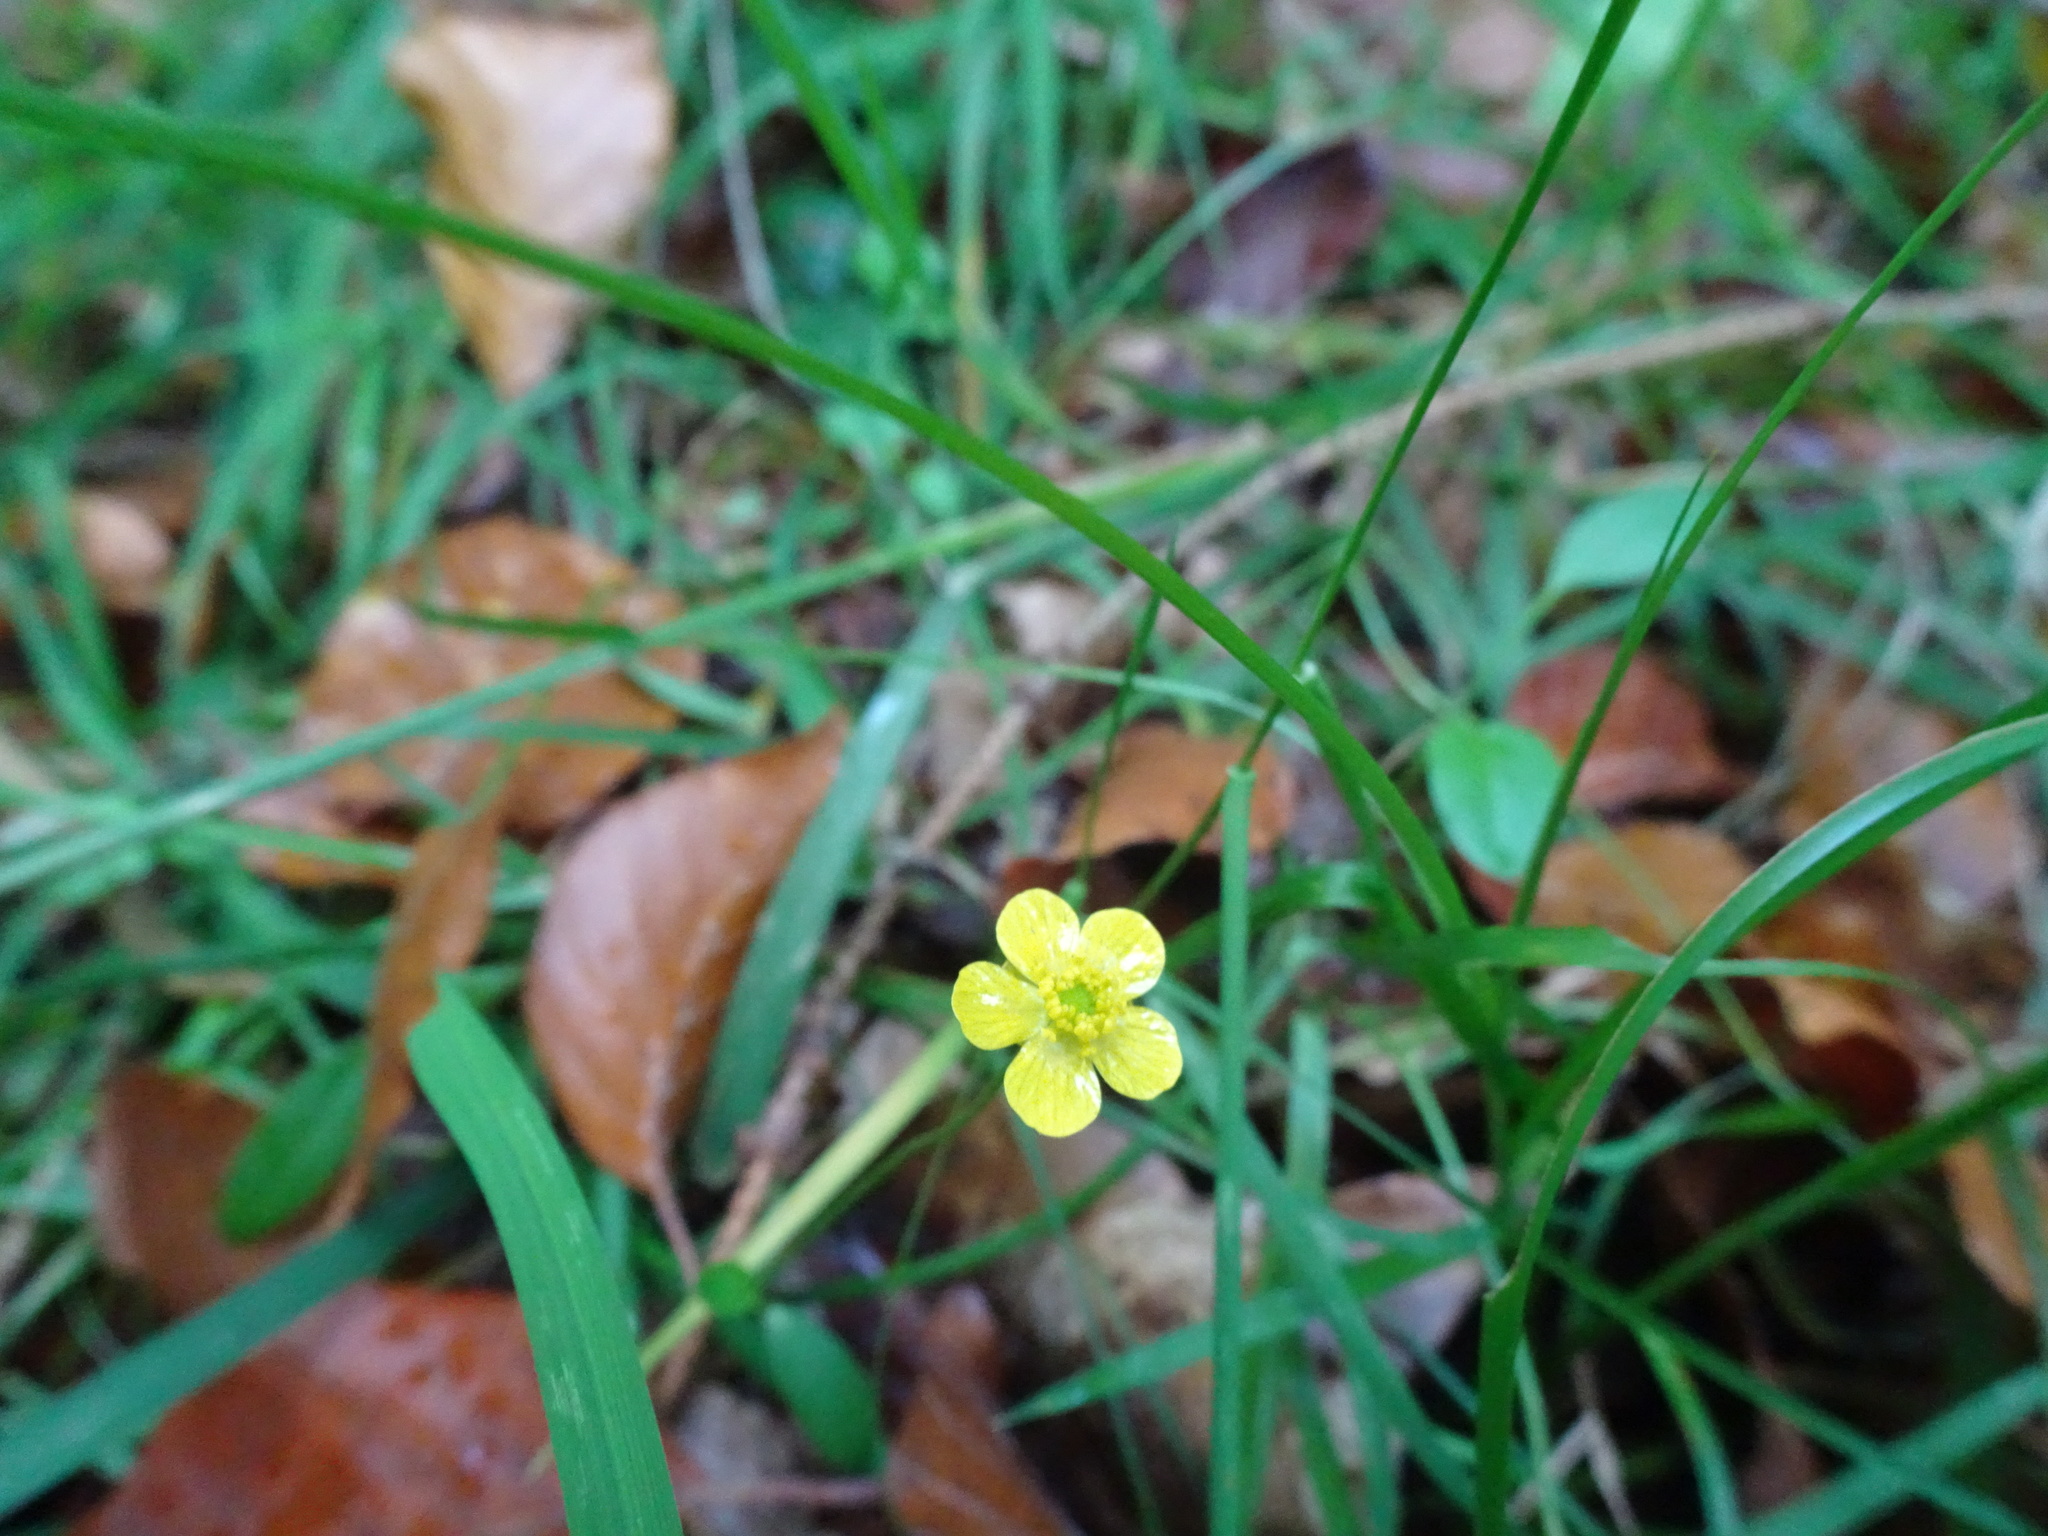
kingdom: Plantae
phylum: Tracheophyta
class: Magnoliopsida
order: Ranunculales
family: Ranunculaceae
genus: Ranunculus
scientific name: Ranunculus flammula
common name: Lesser spearwort
